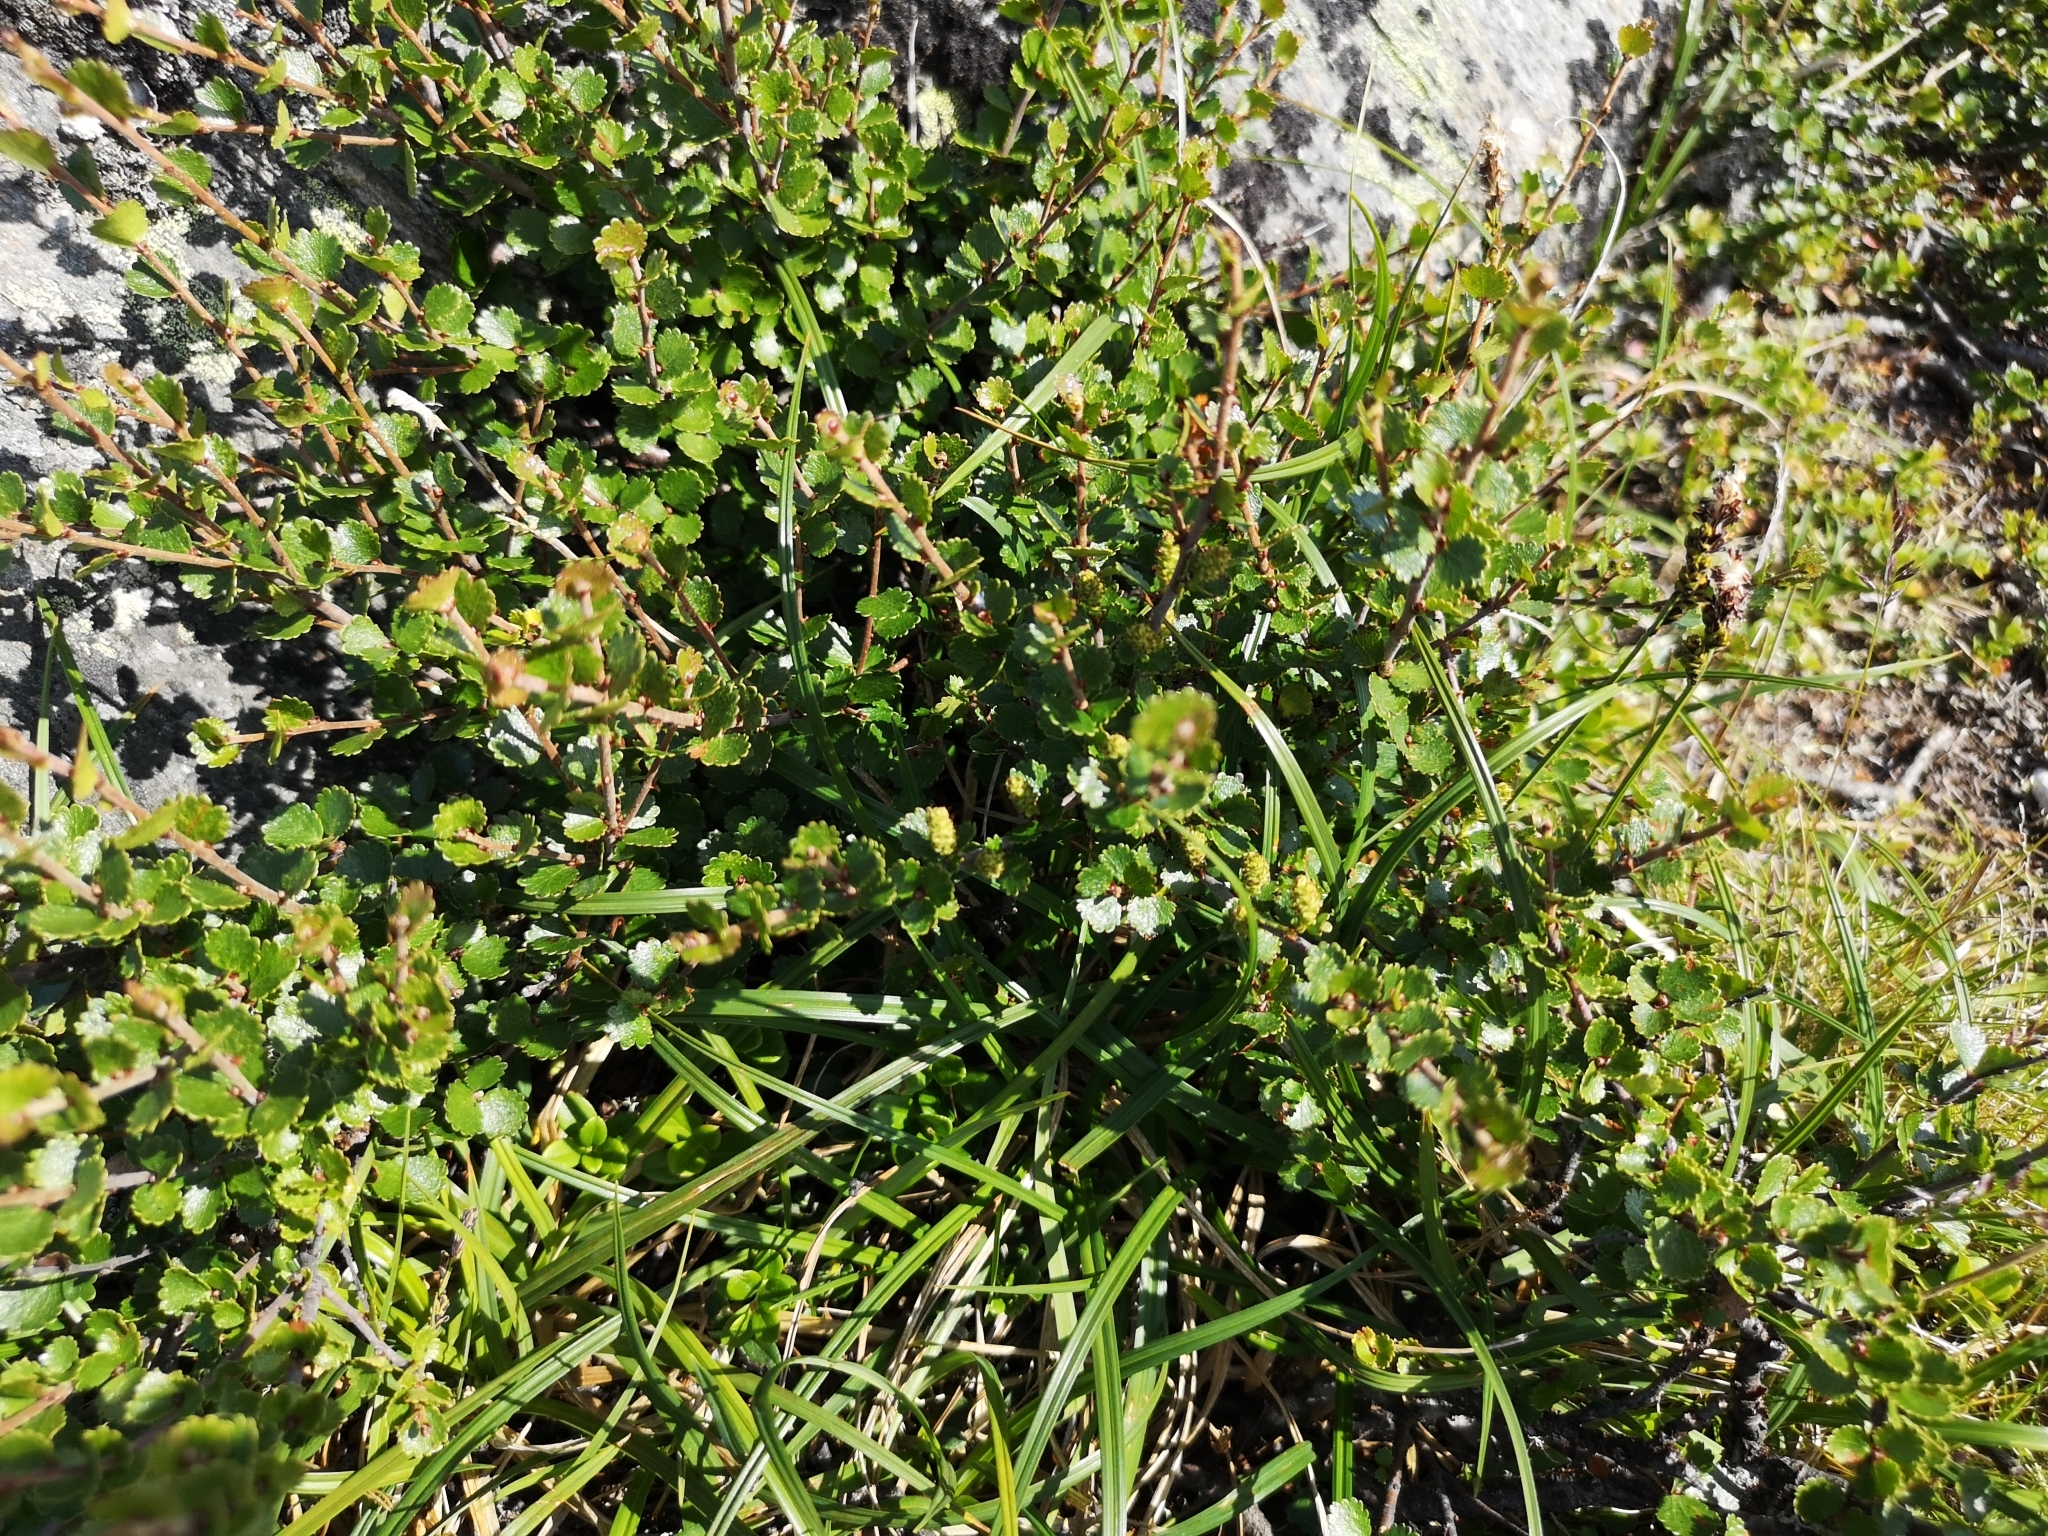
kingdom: Plantae
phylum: Tracheophyta
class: Magnoliopsida
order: Fagales
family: Betulaceae
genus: Betula
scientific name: Betula nana
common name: Arctic dwarf birch
